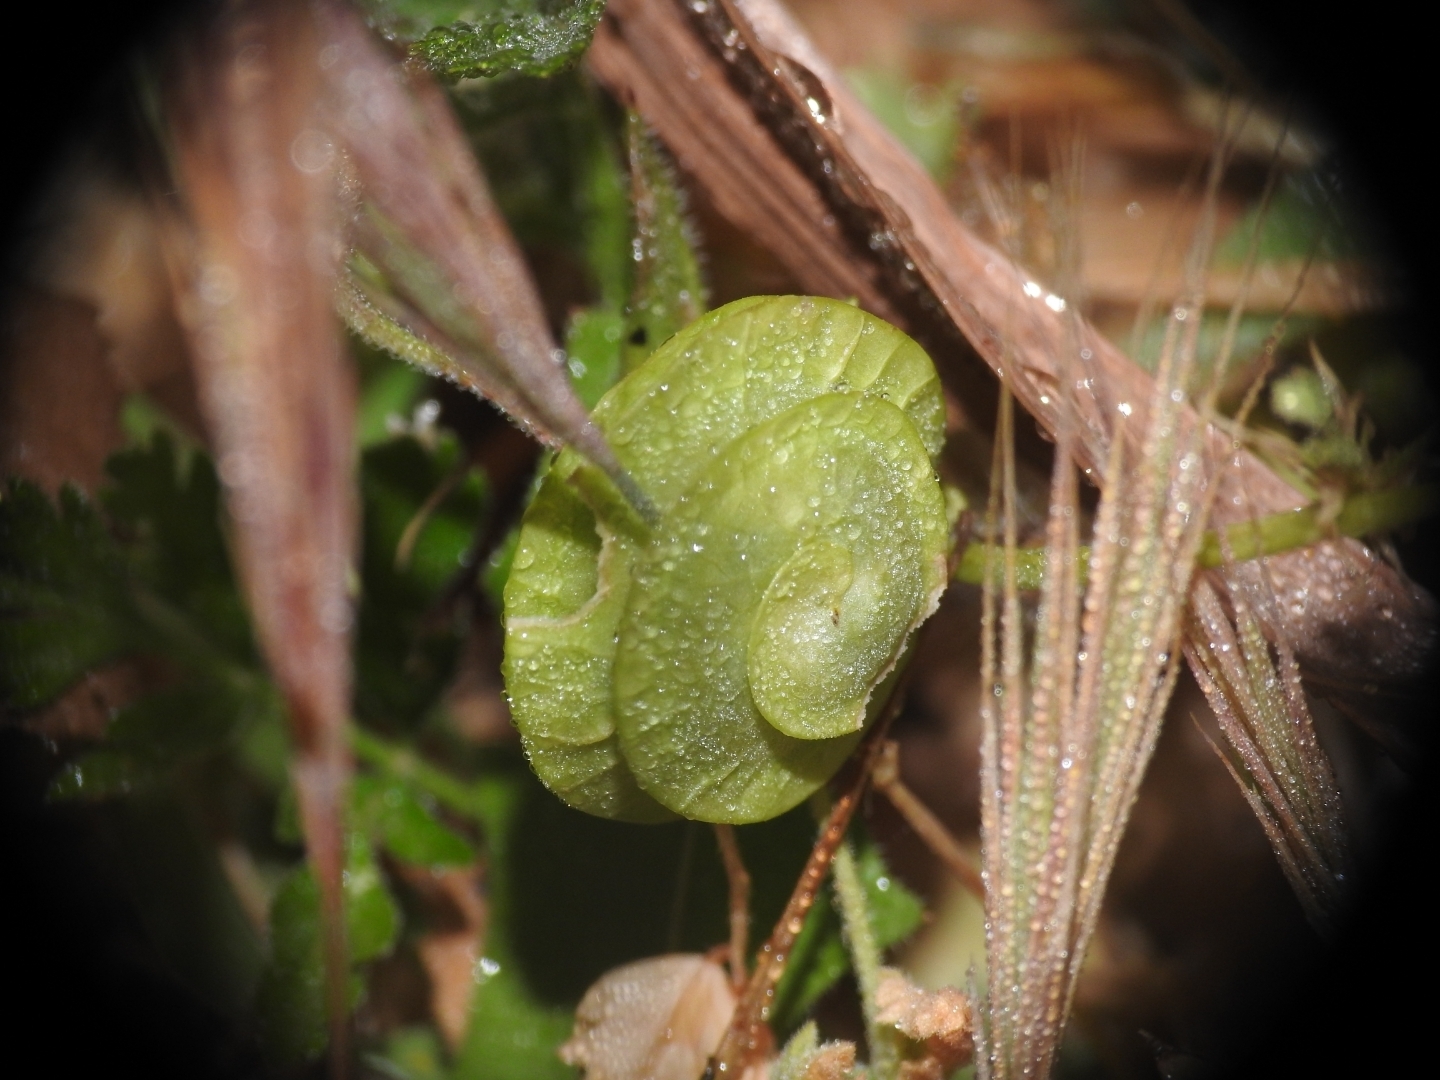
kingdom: Plantae
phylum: Tracheophyta
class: Magnoliopsida
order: Fabales
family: Fabaceae
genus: Medicago
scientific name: Medicago orbicularis
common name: Button medick
